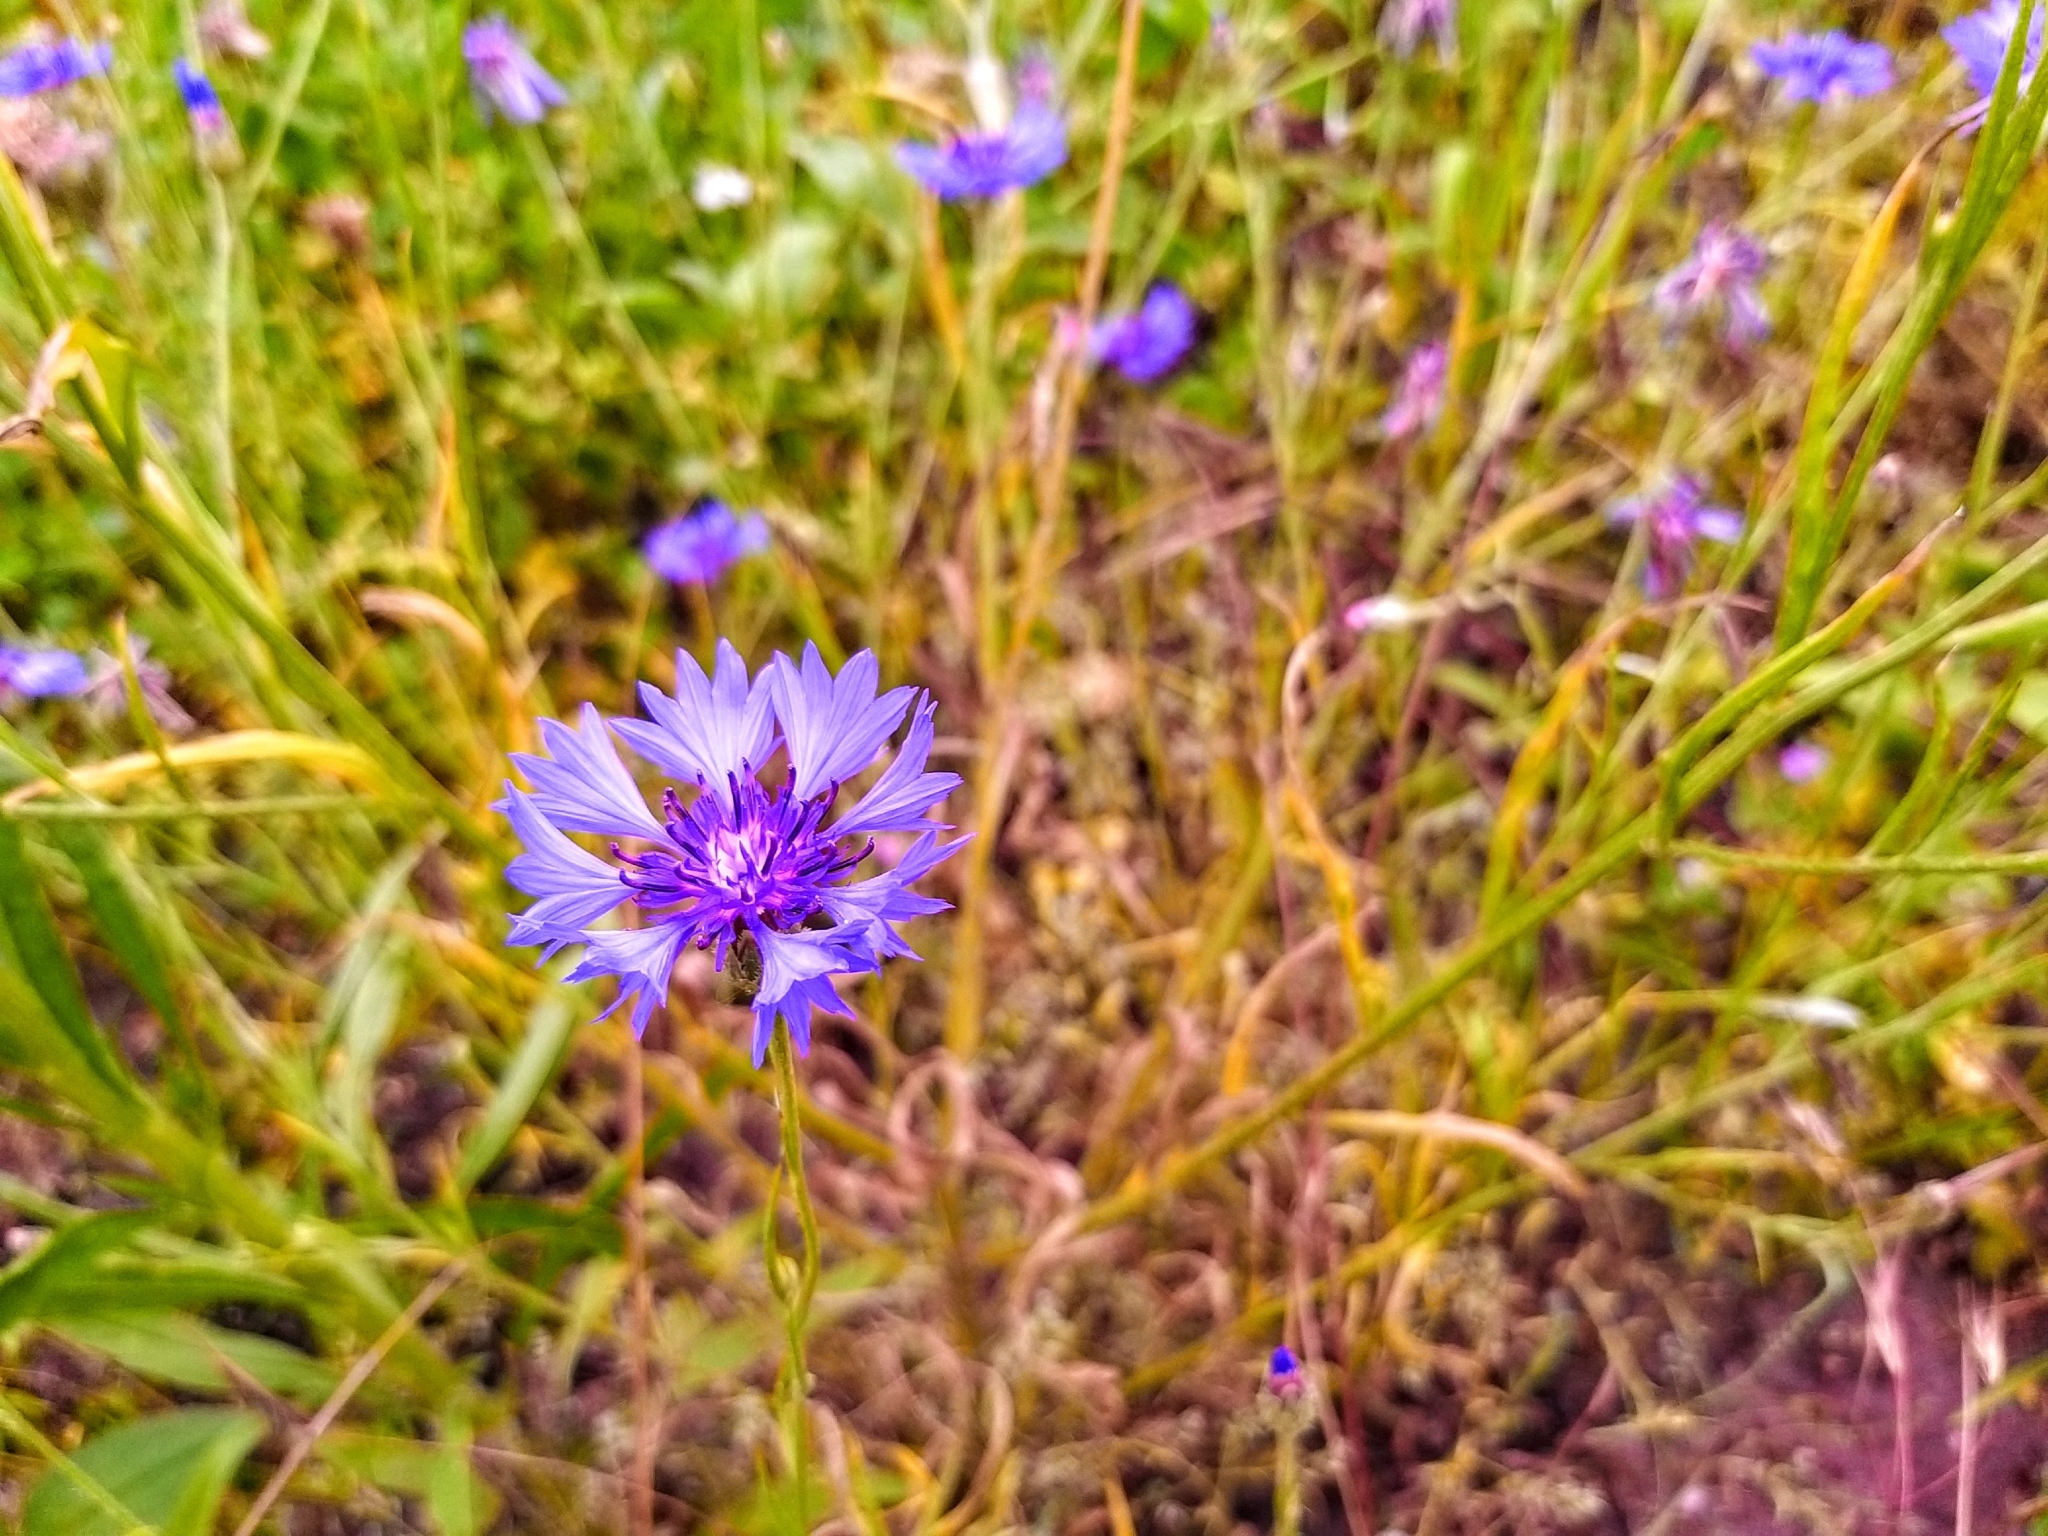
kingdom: Plantae
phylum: Tracheophyta
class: Magnoliopsida
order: Asterales
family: Asteraceae
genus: Centaurea
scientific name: Centaurea cyanus
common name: Cornflower
